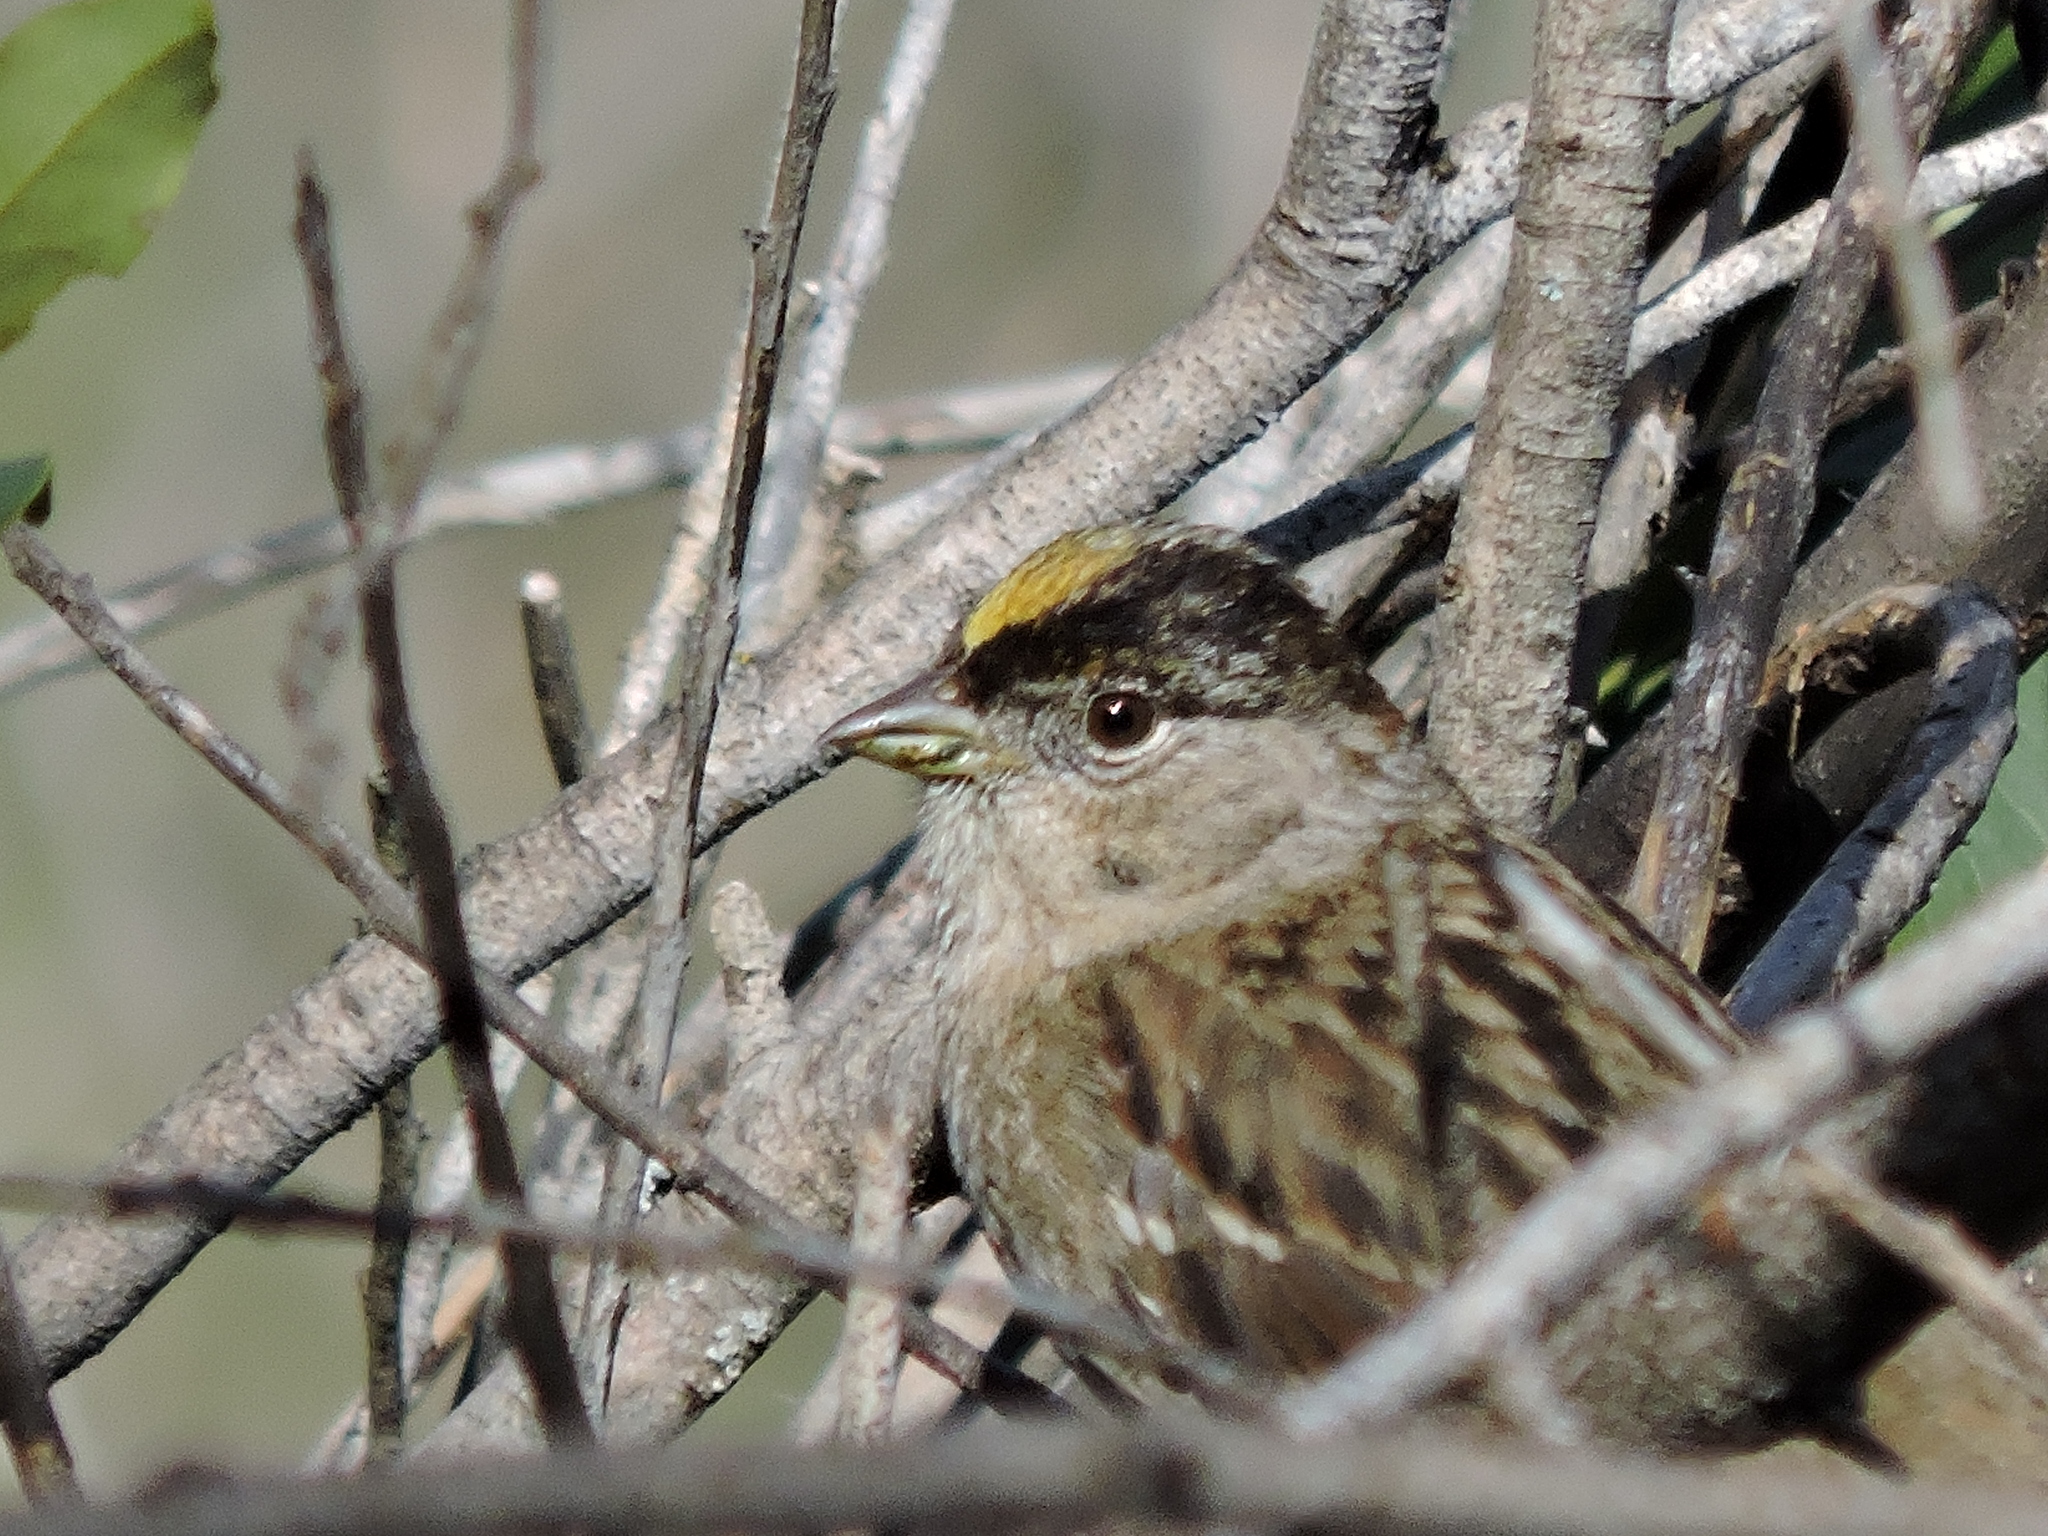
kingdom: Animalia
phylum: Chordata
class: Aves
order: Passeriformes
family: Passerellidae
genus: Zonotrichia
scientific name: Zonotrichia atricapilla
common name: Golden-crowned sparrow
